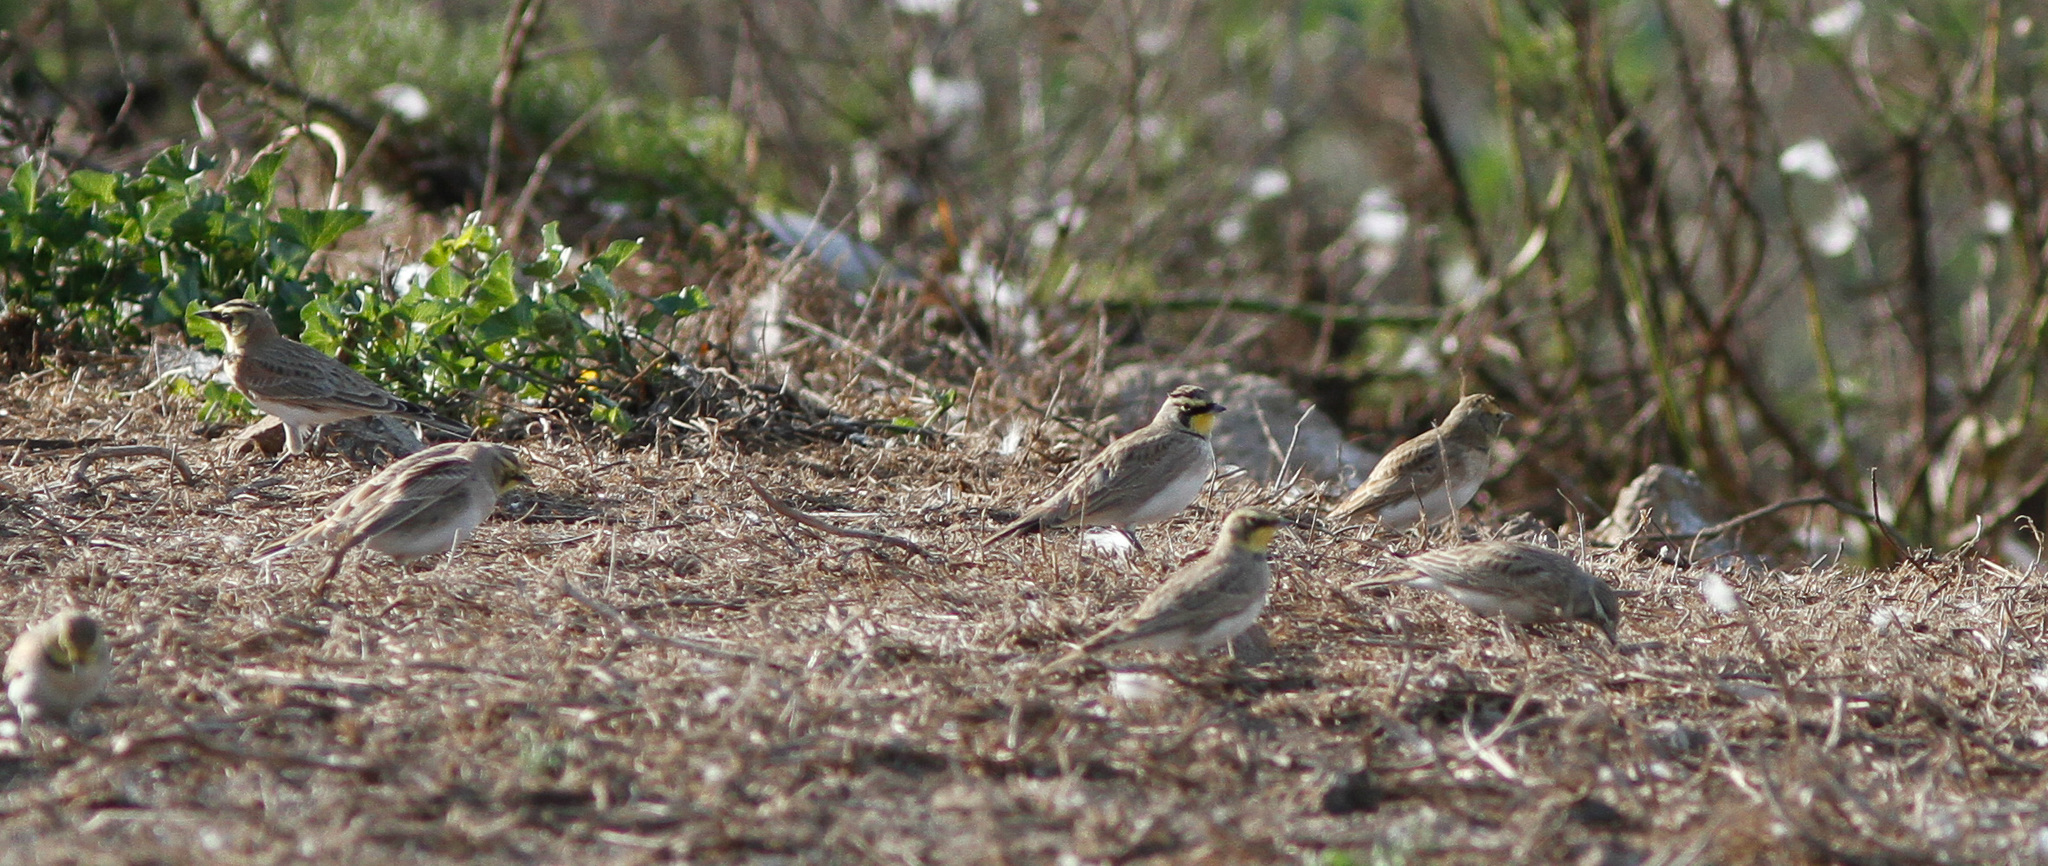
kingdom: Animalia
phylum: Chordata
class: Aves
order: Passeriformes
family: Alaudidae
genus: Eremophila
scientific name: Eremophila alpestris
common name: Horned lark
